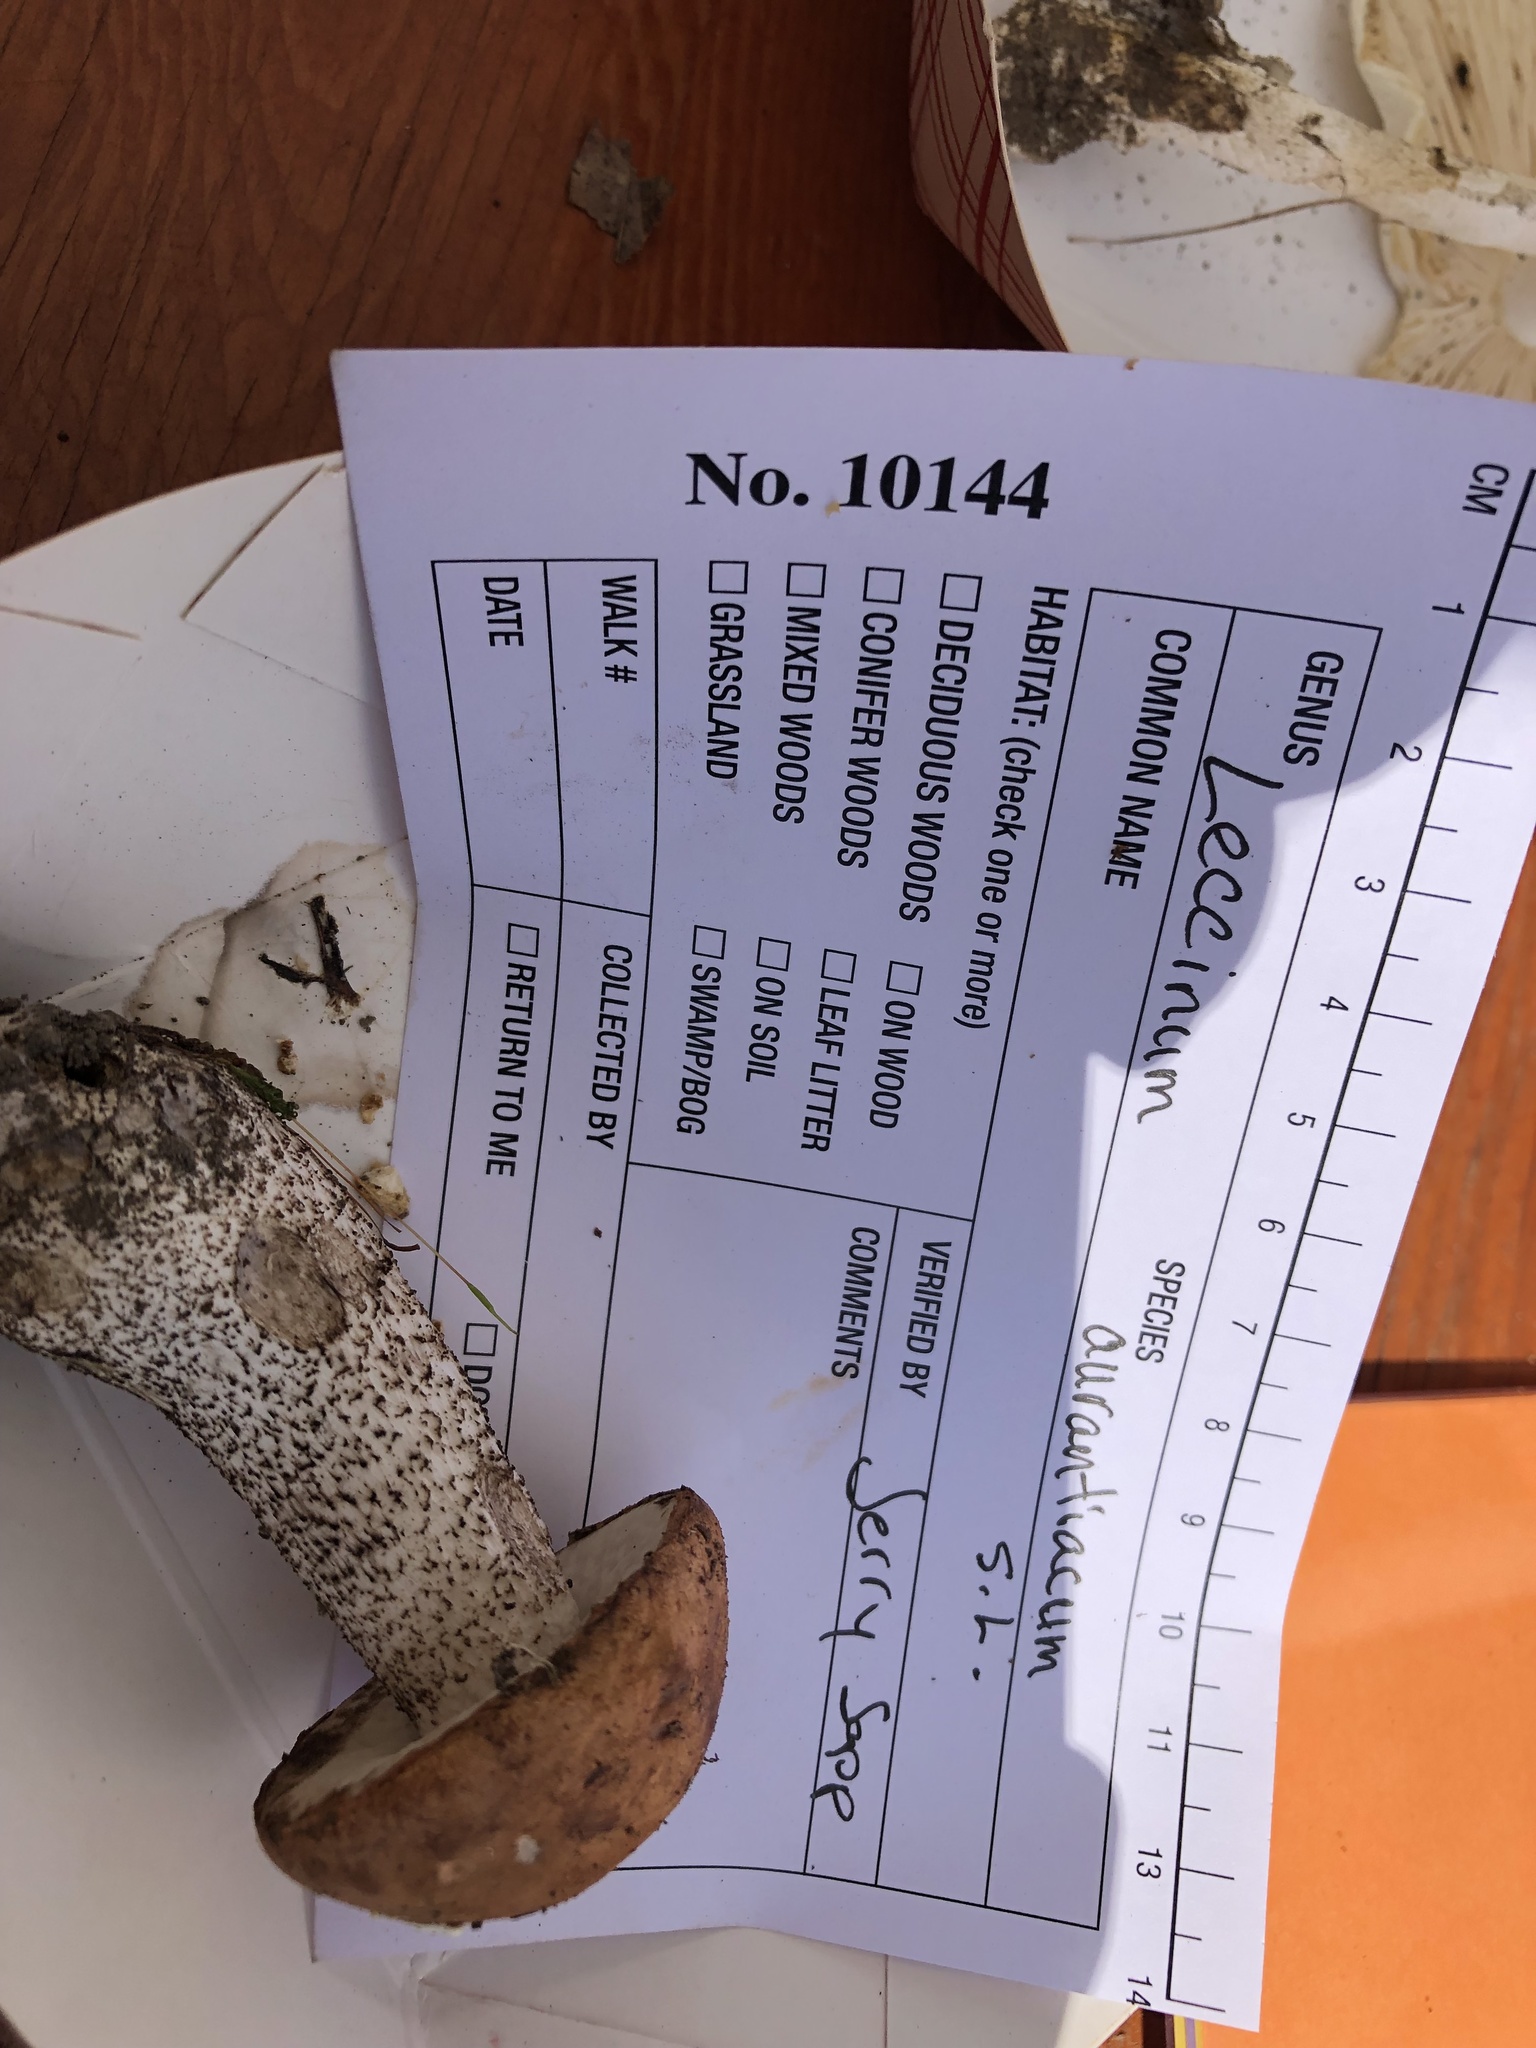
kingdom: Fungi
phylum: Basidiomycota
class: Agaricomycetes
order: Boletales
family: Boletaceae
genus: Leccinum
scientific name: Leccinum aurantiacum
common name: Orange bolete
